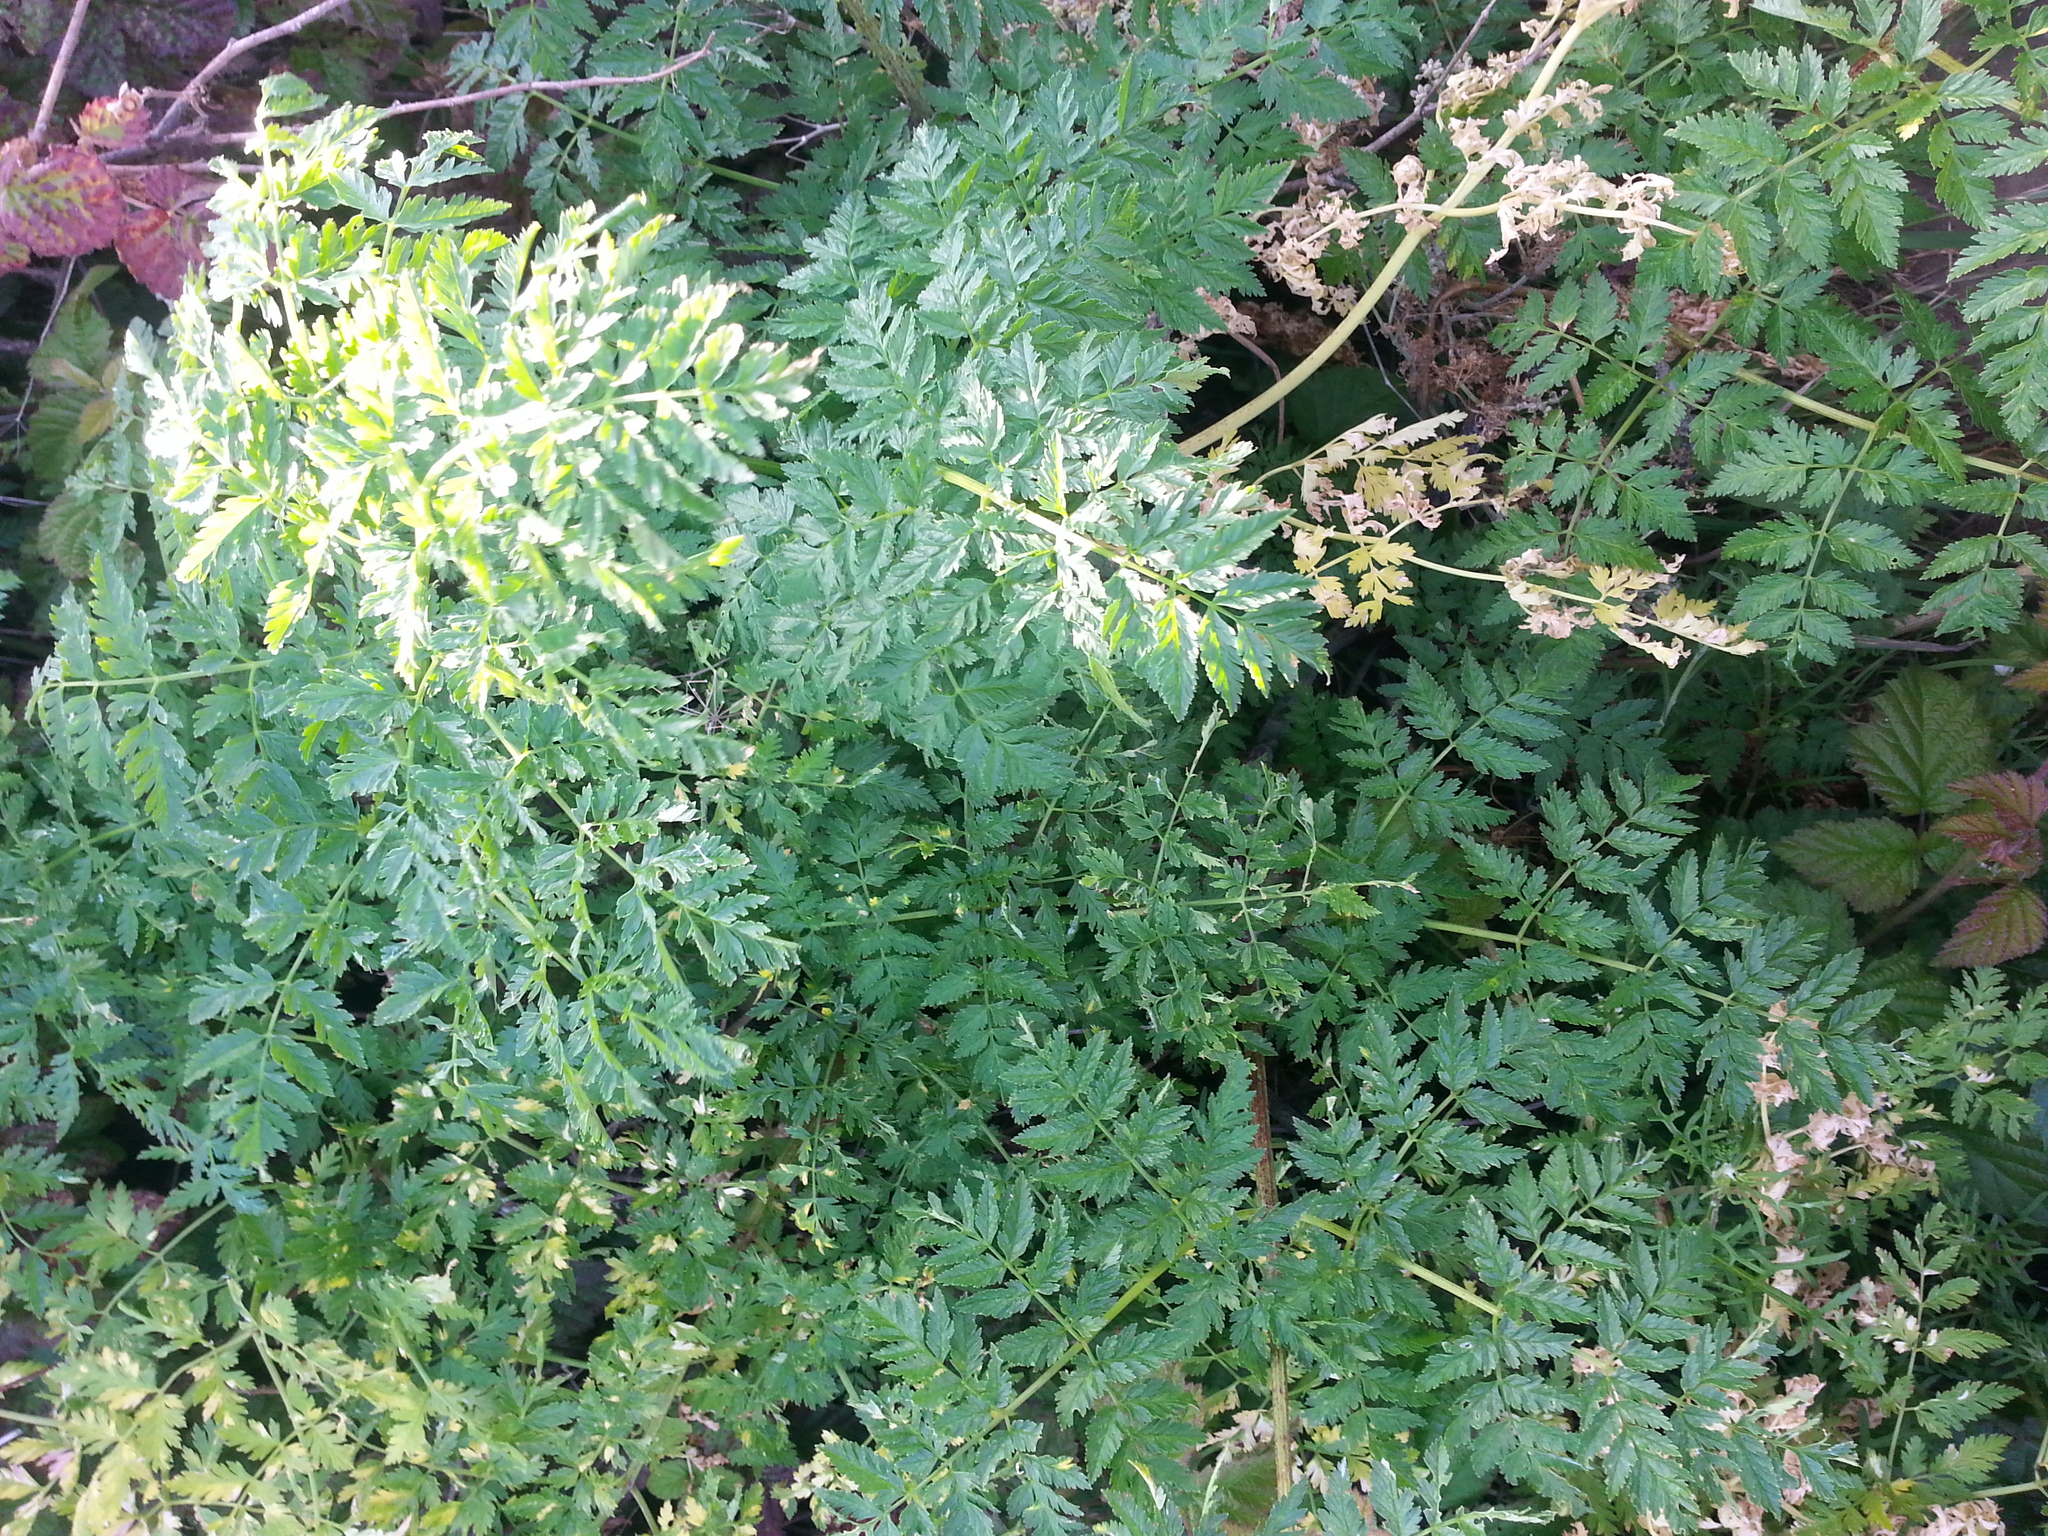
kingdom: Plantae
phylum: Tracheophyta
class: Magnoliopsida
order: Apiales
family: Apiaceae
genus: Conium
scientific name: Conium maculatum
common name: Hemlock
